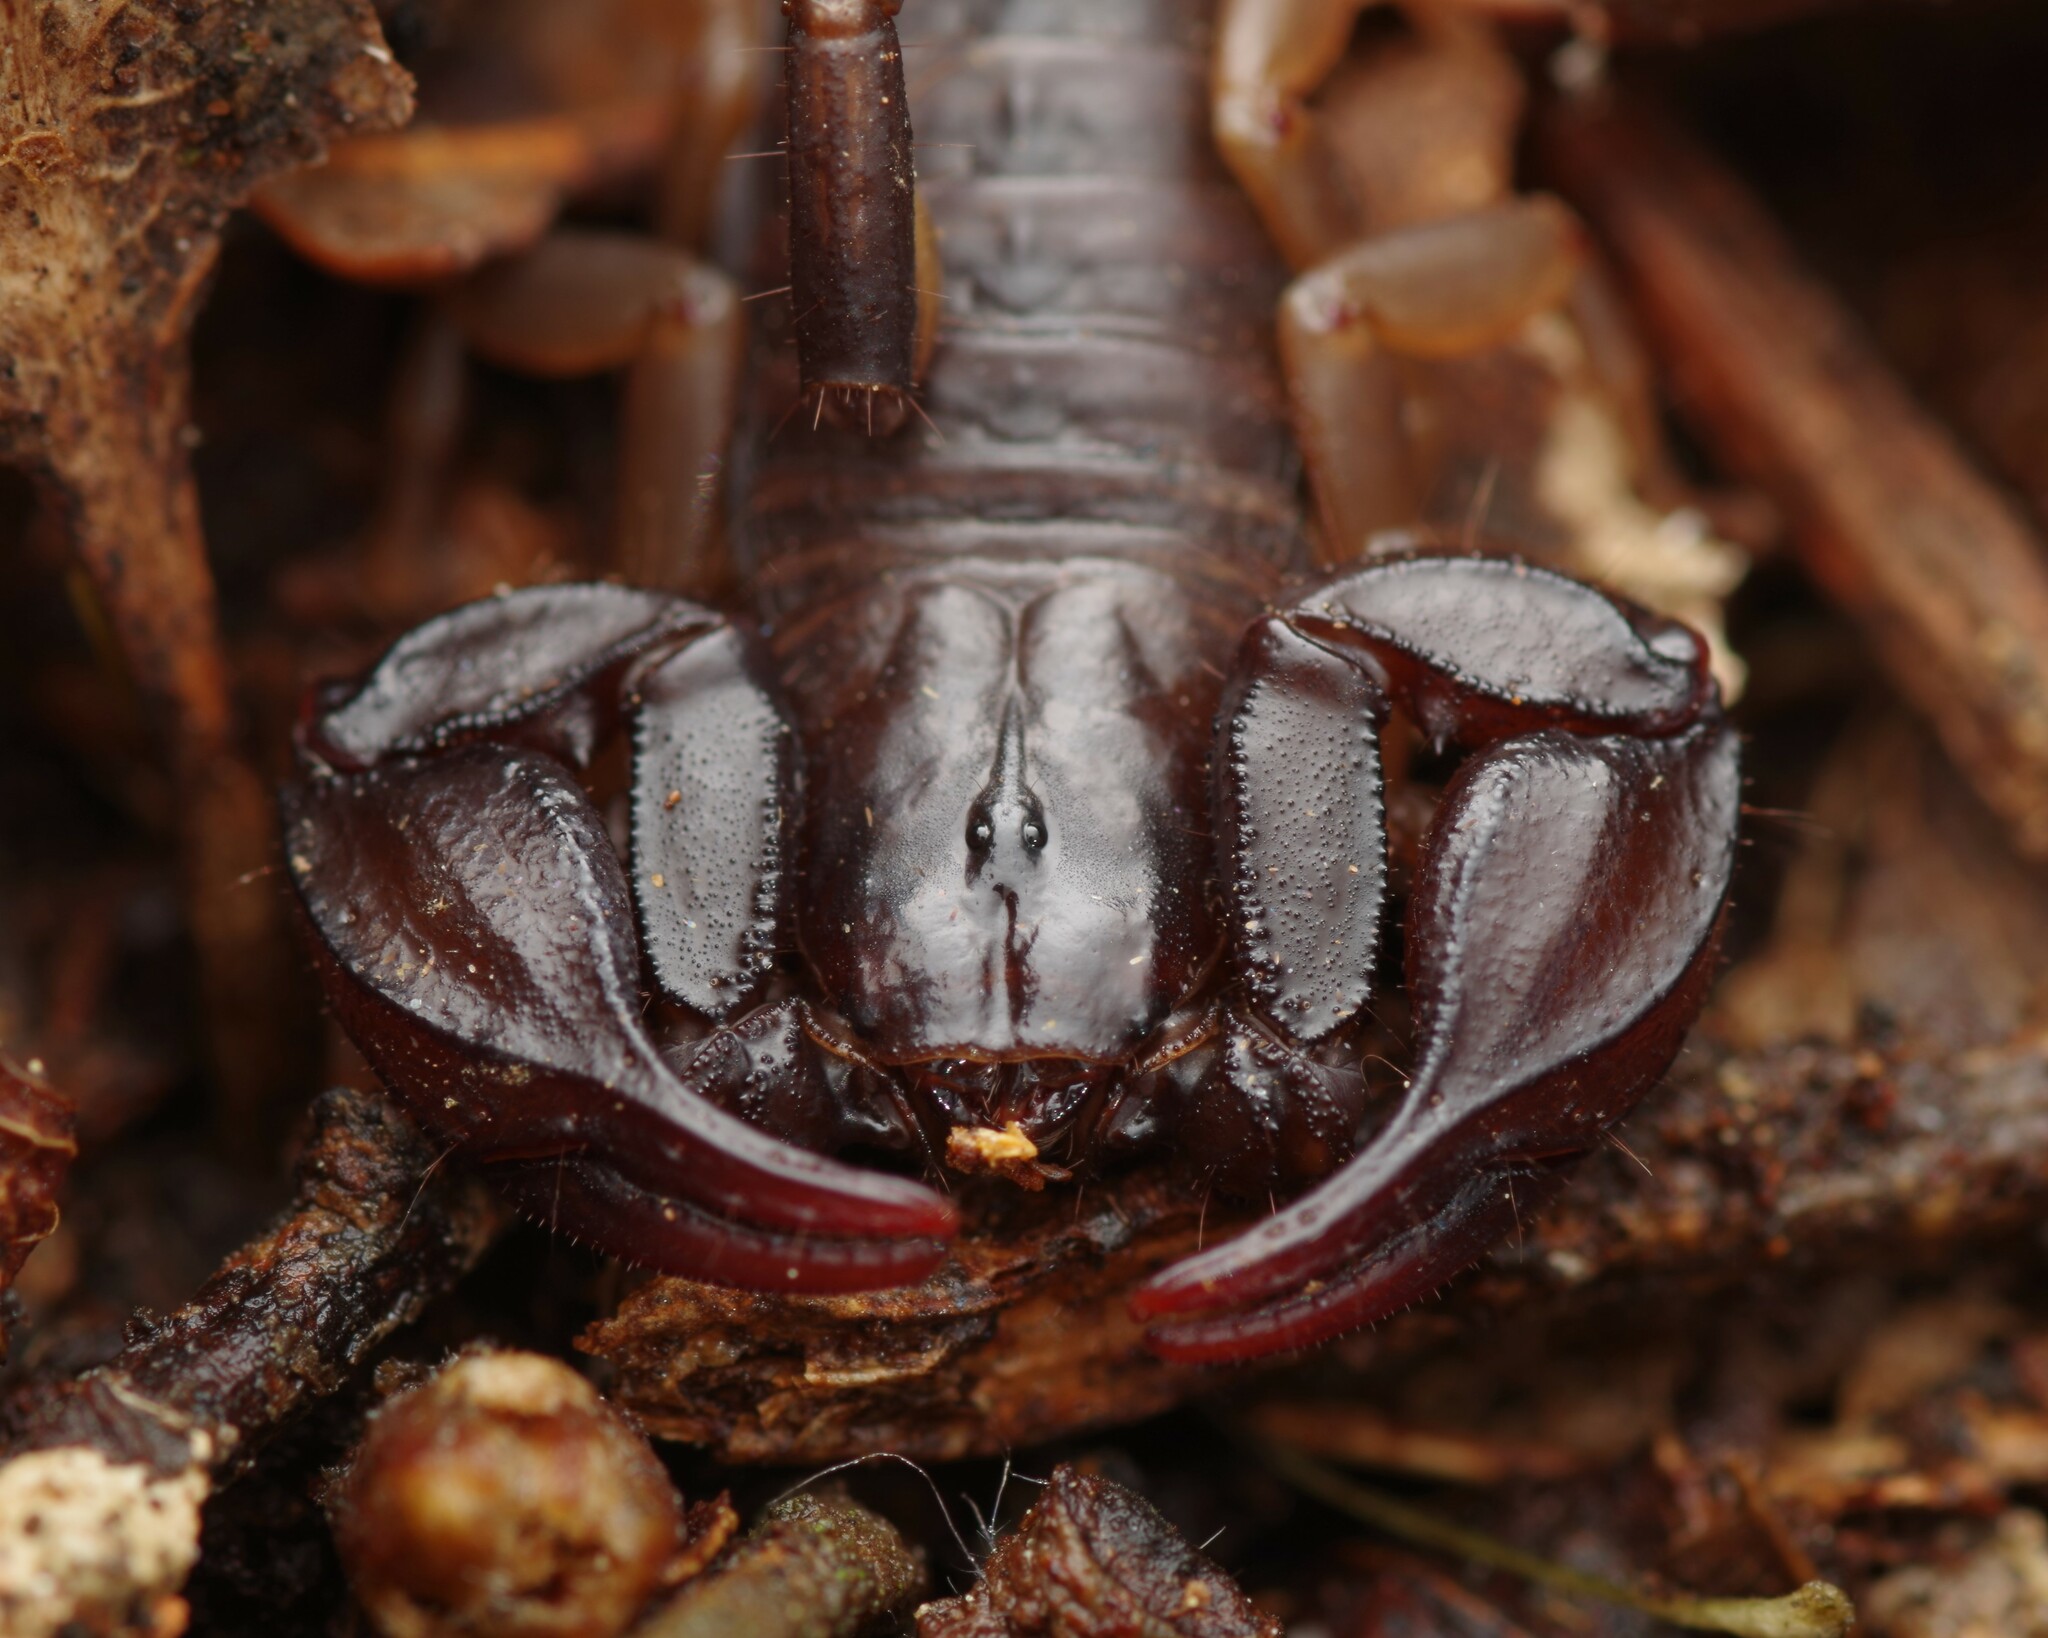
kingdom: Animalia
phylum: Arthropoda
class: Arachnida
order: Scorpiones
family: Euscorpiidae
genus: Euscorpius
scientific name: Euscorpius flavicaudis
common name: European yellow-tailed scorpion
